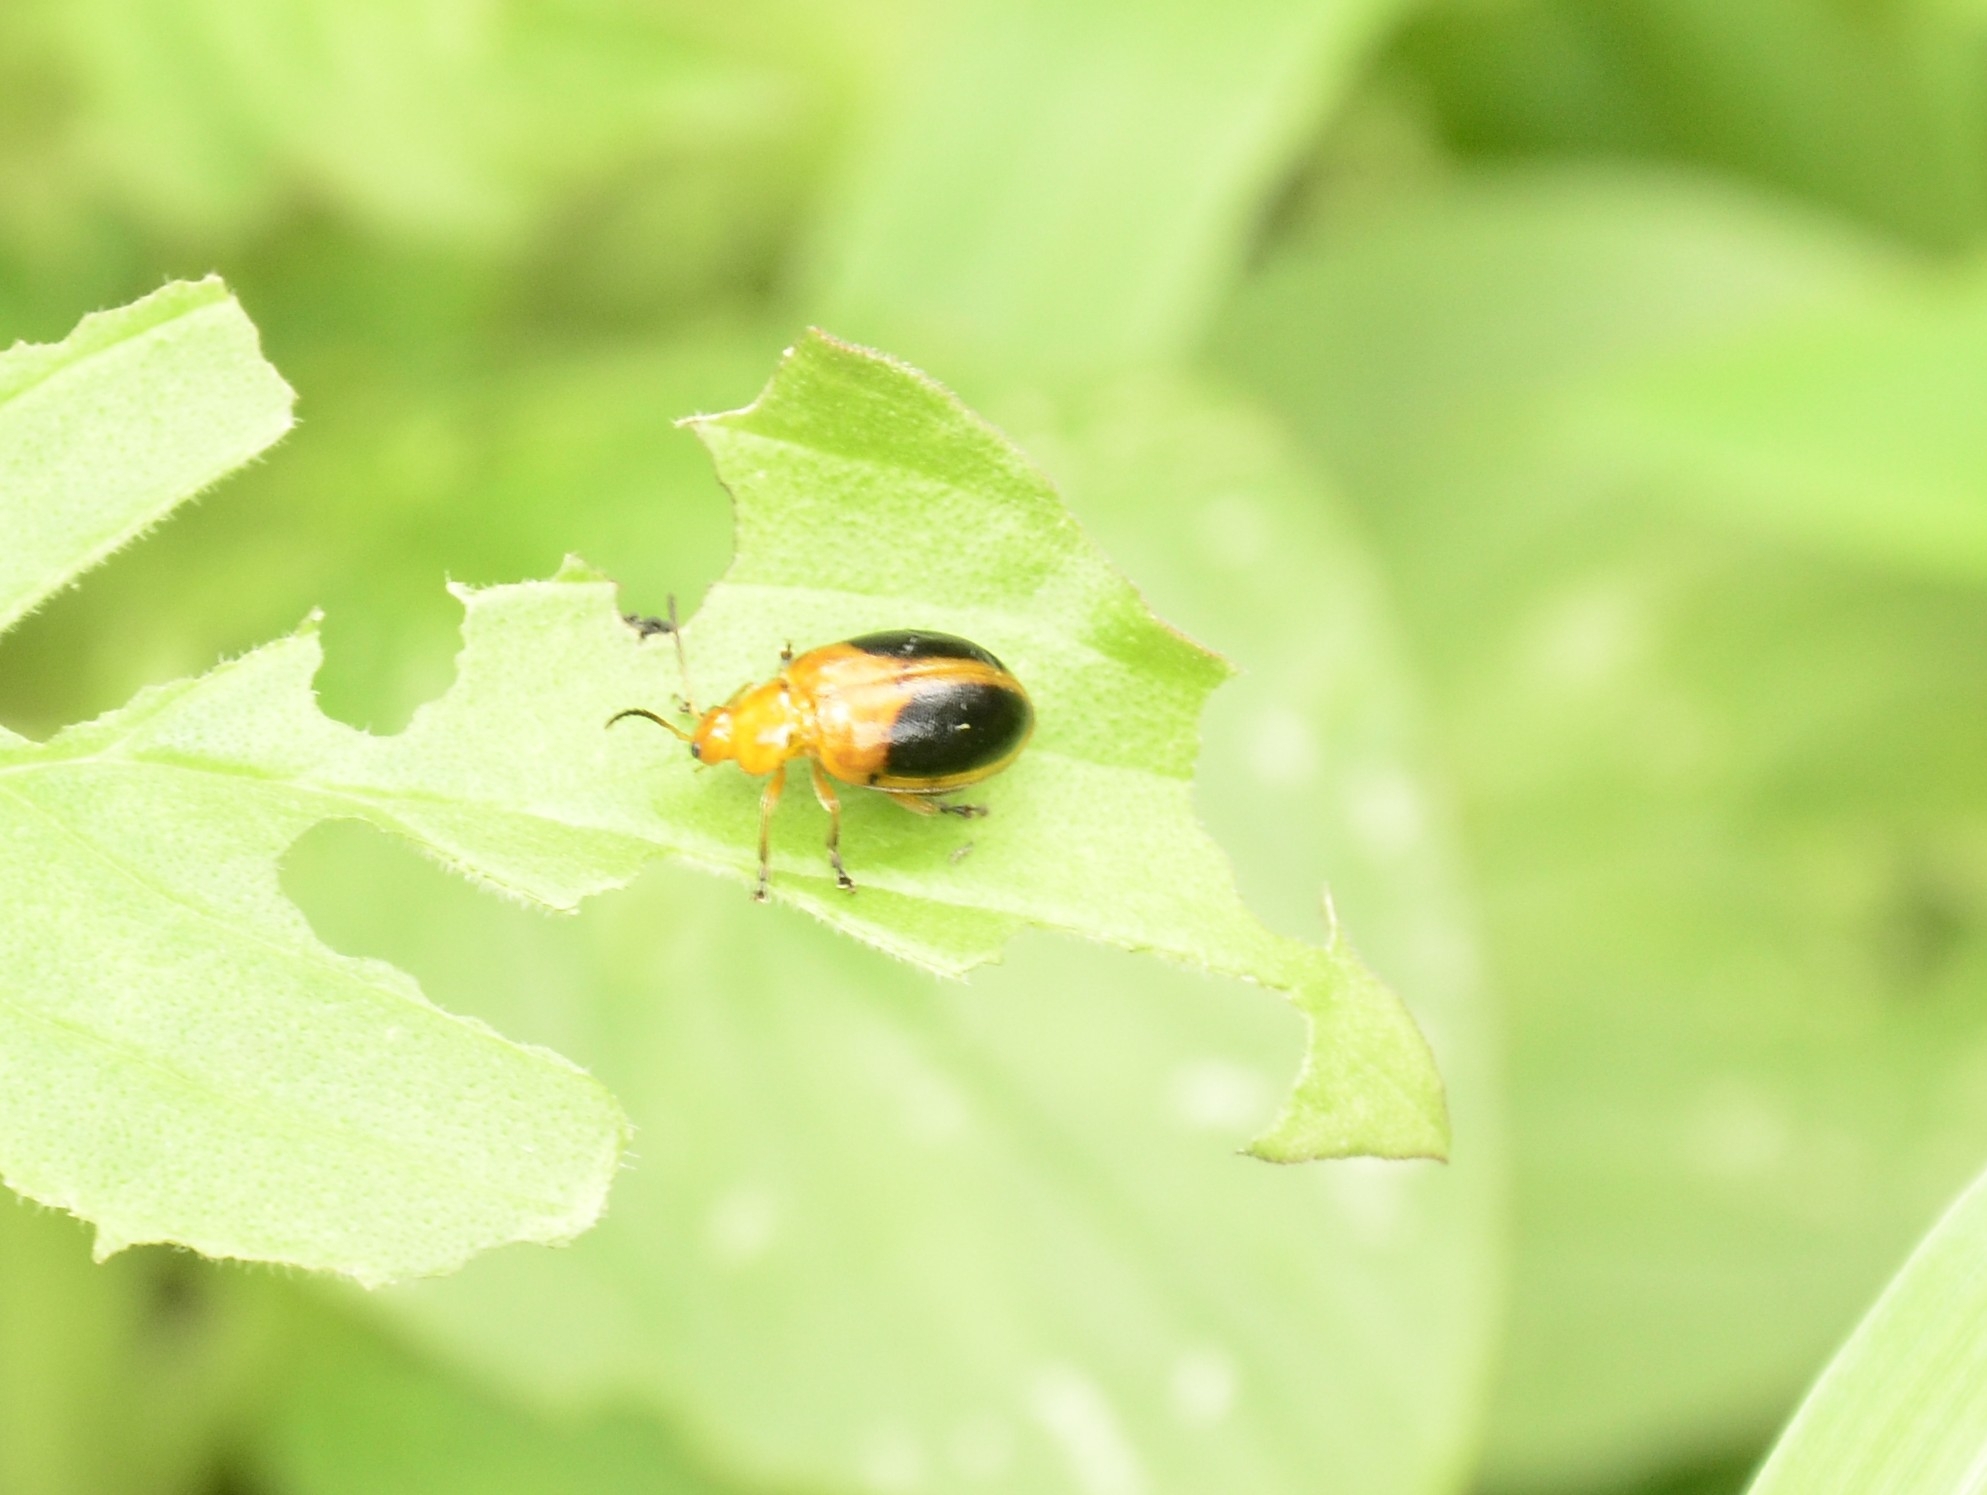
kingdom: Animalia
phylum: Arthropoda
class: Insecta
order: Coleoptera
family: Chrysomelidae
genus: Oides
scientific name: Oides affinis
